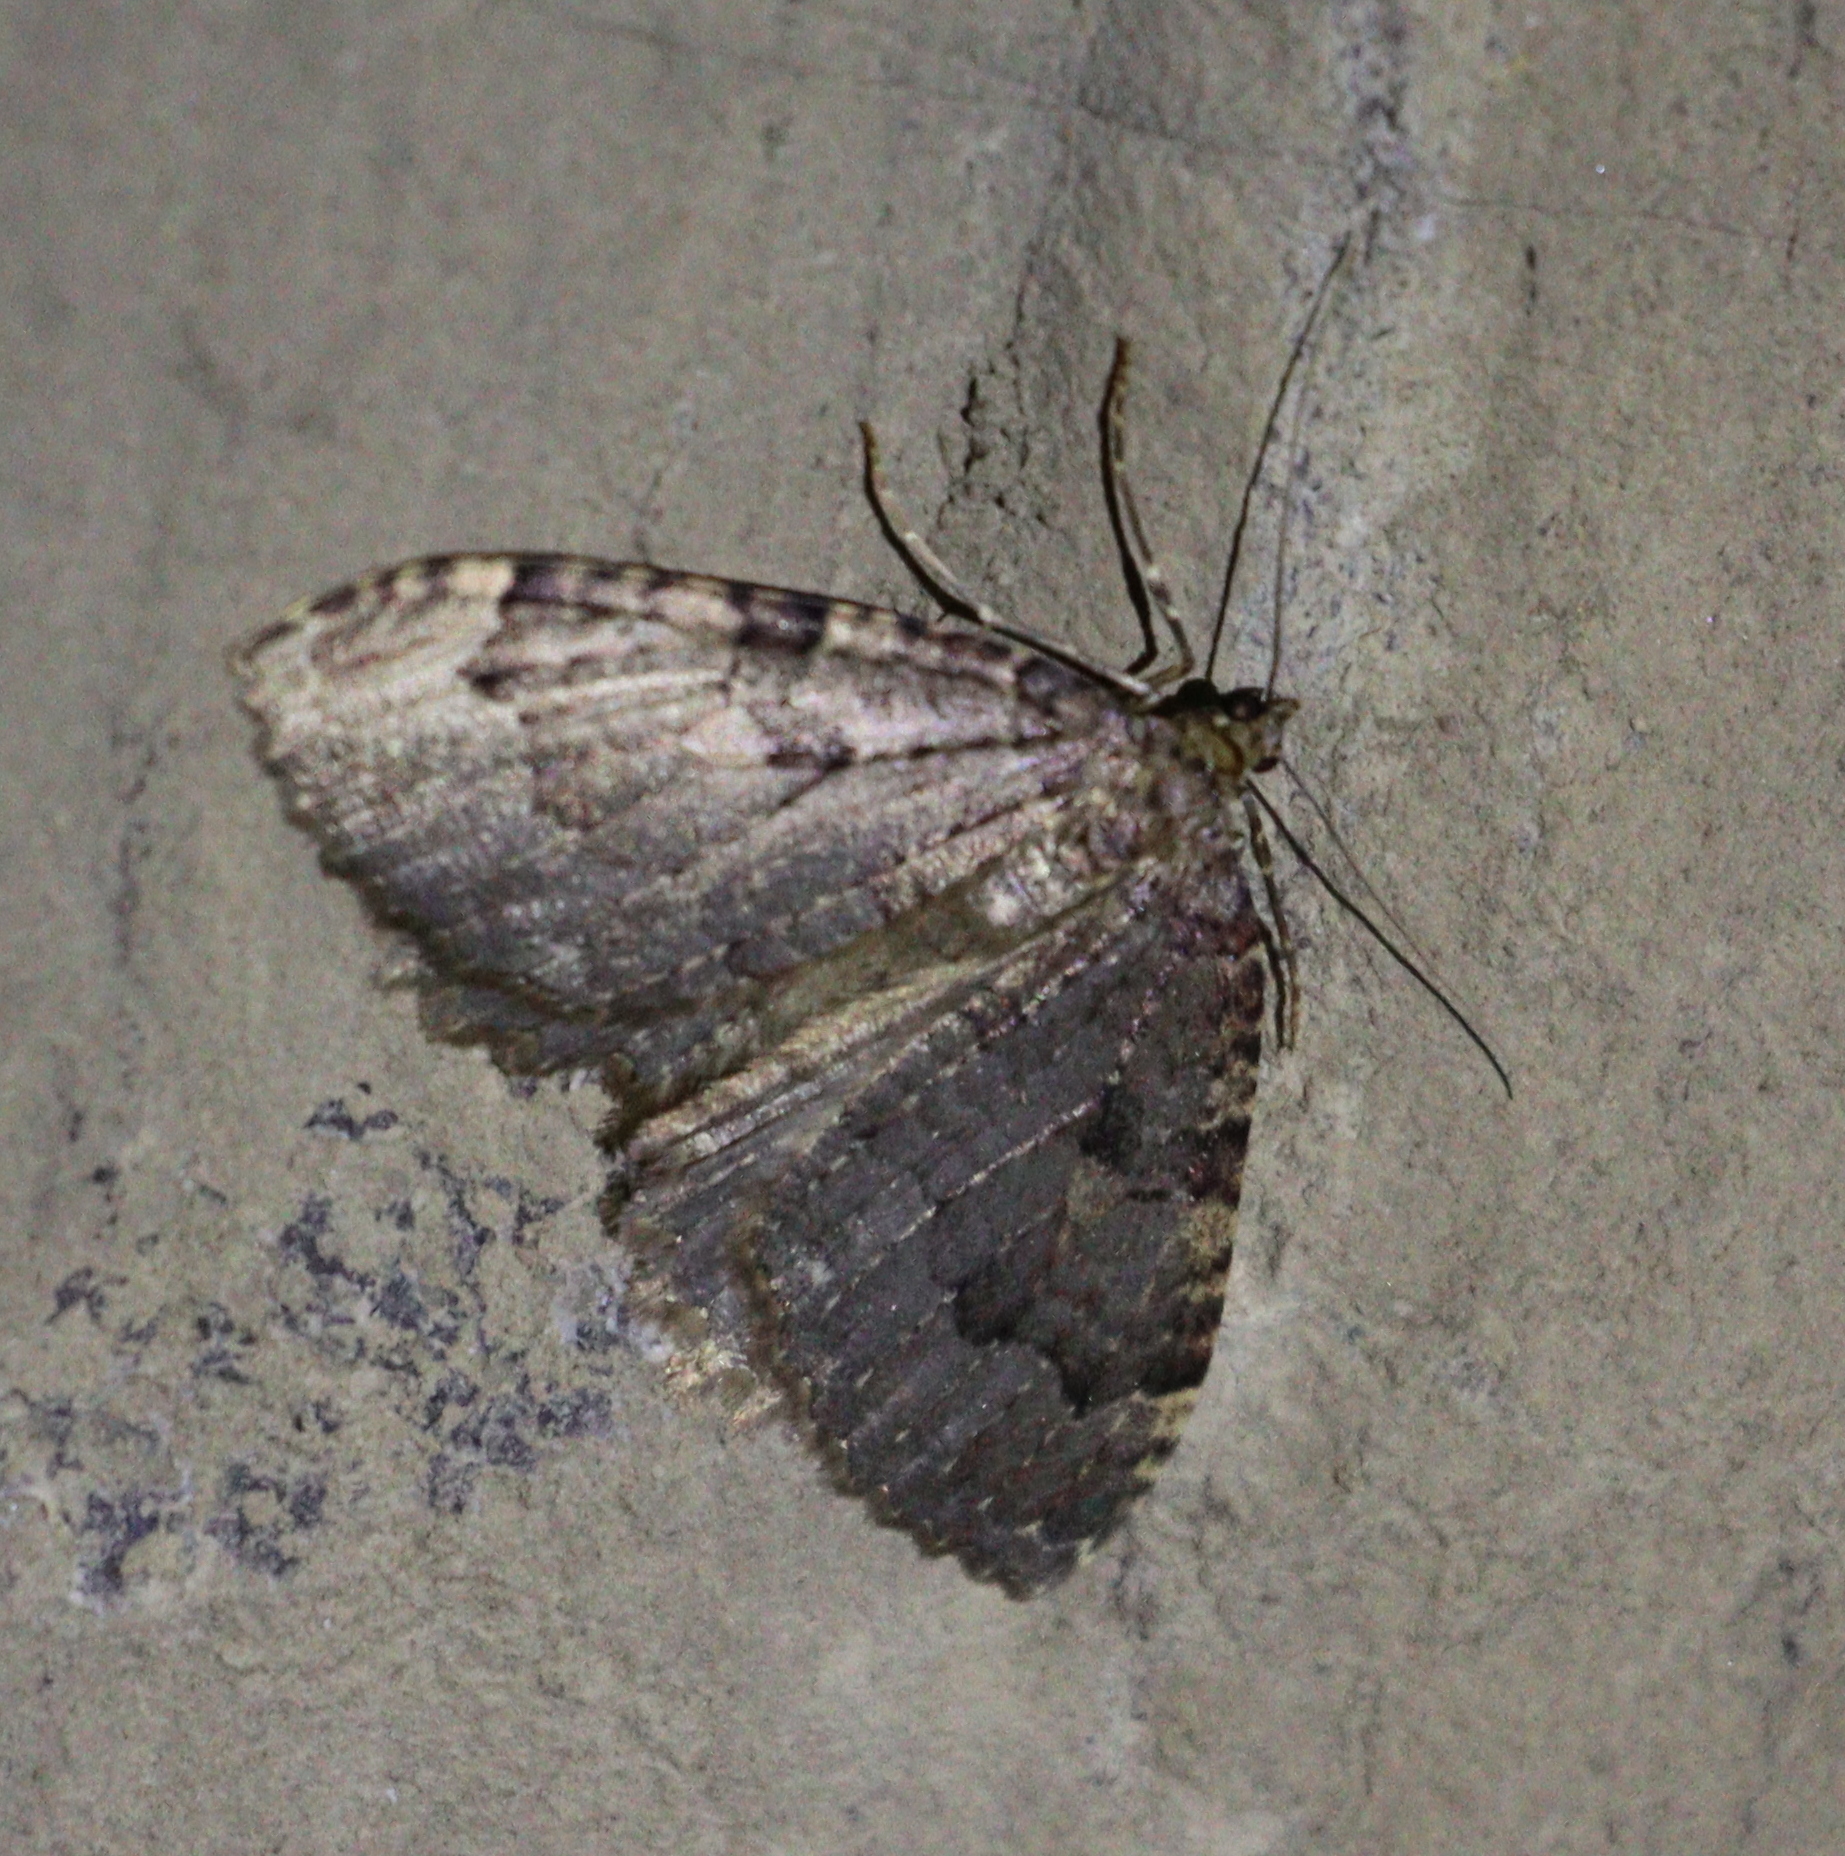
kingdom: Animalia
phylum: Arthropoda
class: Insecta
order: Lepidoptera
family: Geometridae
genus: Triphosa
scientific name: Triphosa dubitata
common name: Tissue
